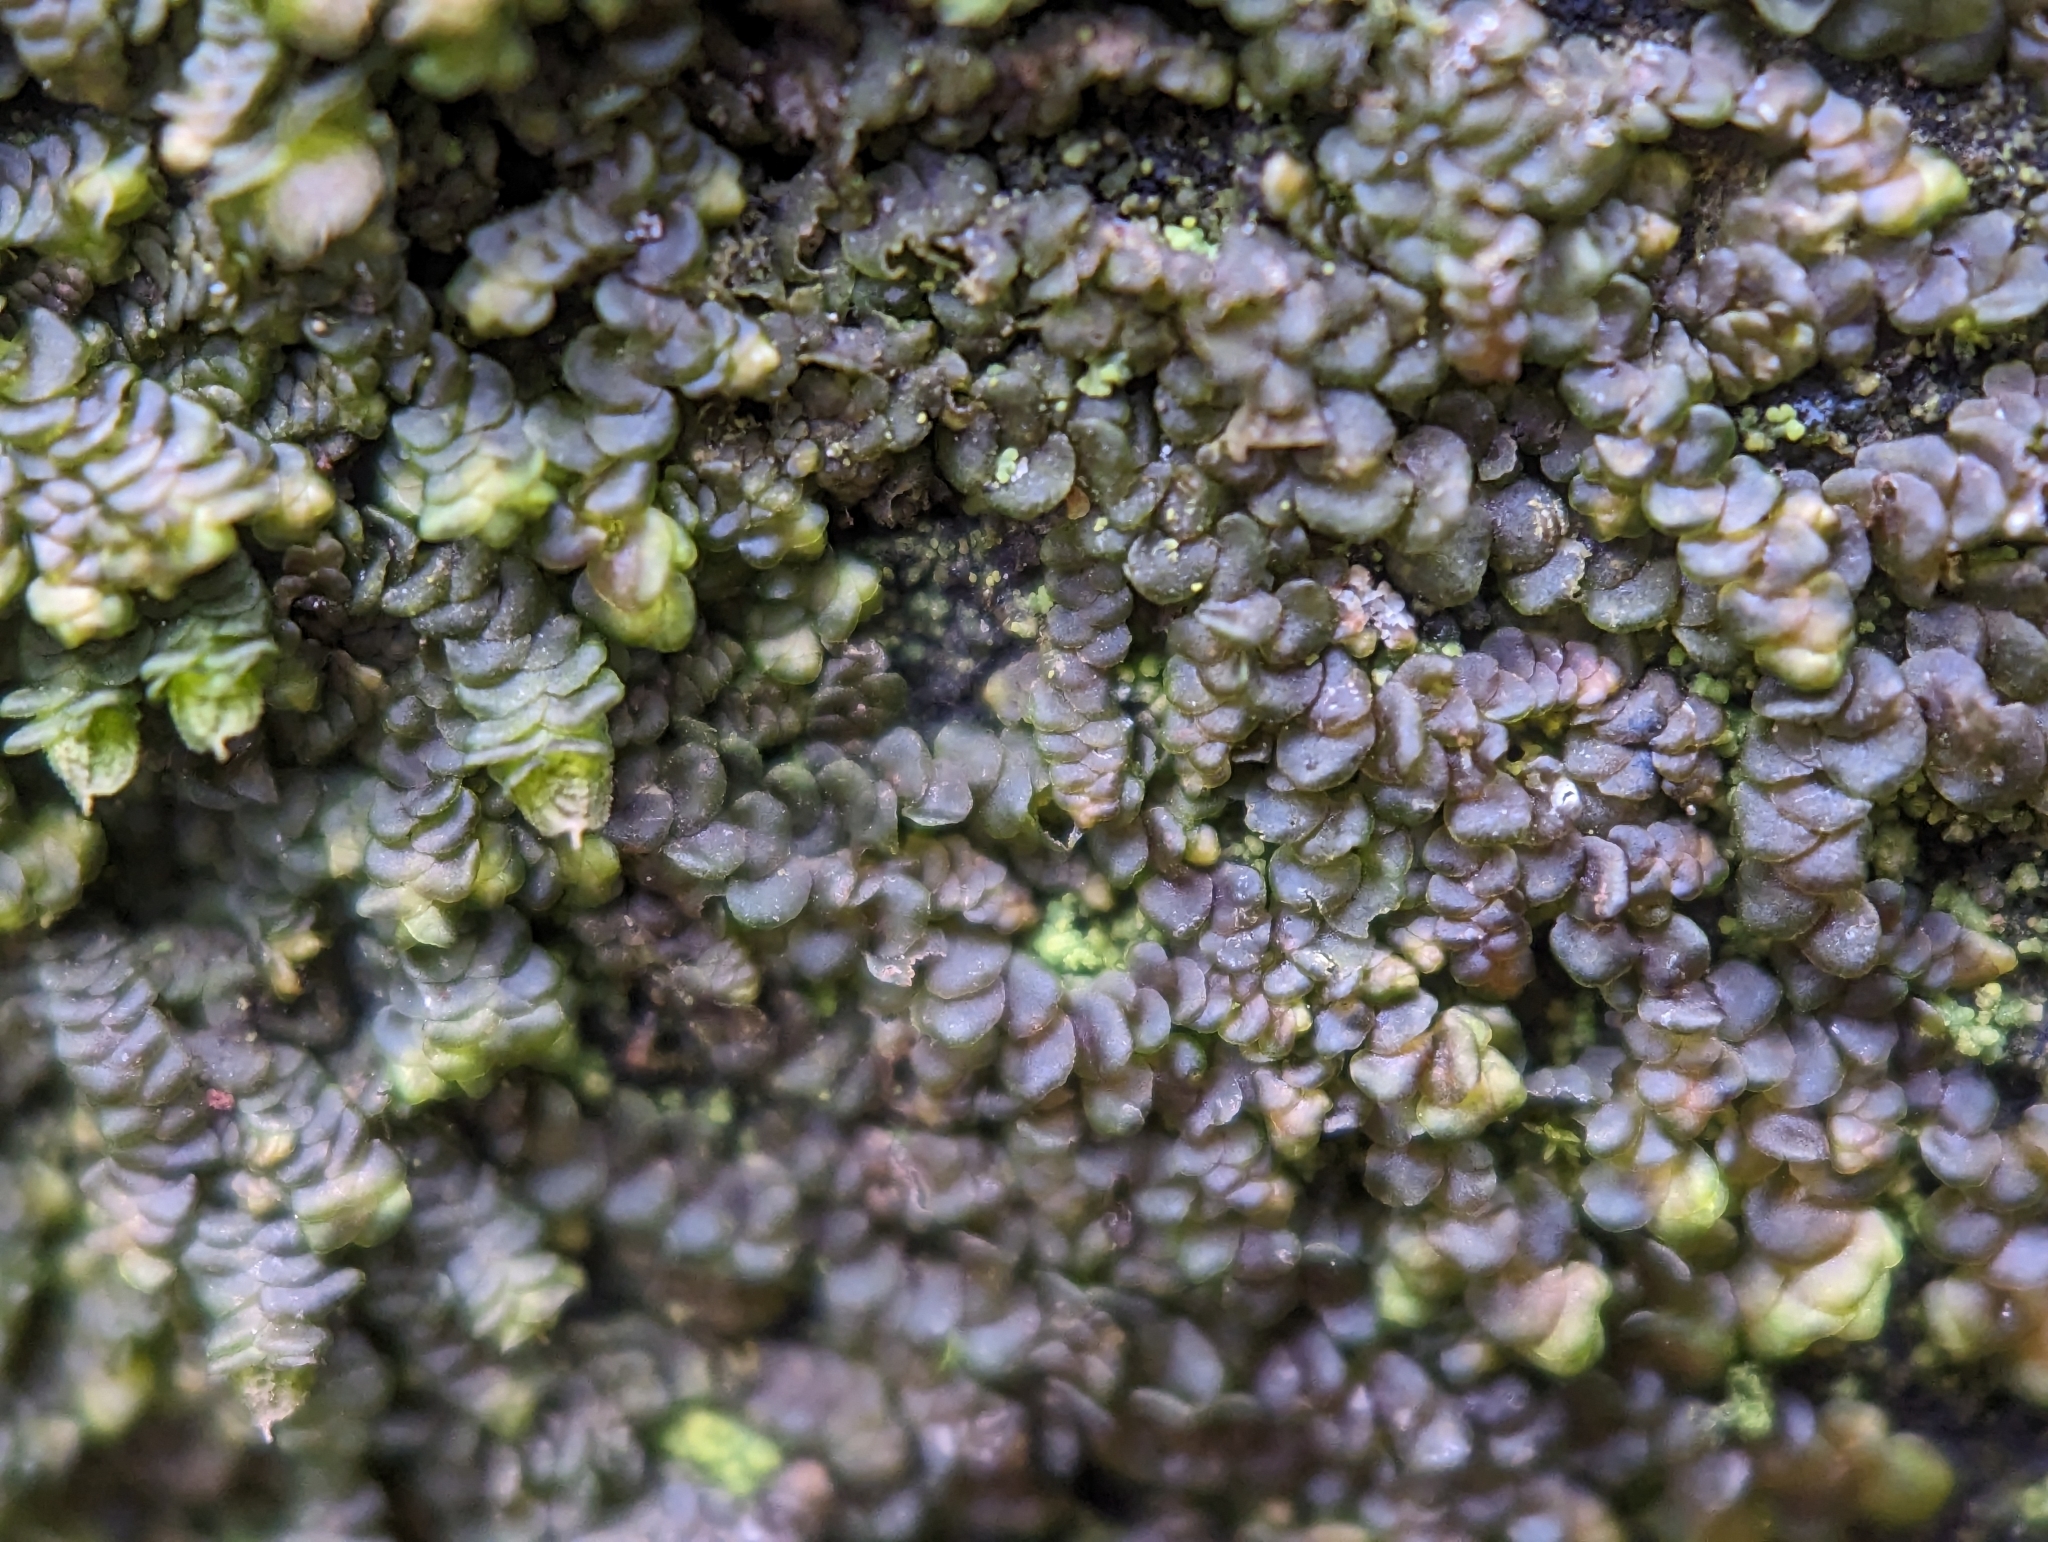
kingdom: Plantae
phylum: Marchantiophyta
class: Jungermanniopsida
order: Porellales
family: Frullaniaceae
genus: Frullania
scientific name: Frullania dilatata
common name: Dilated scalewort
